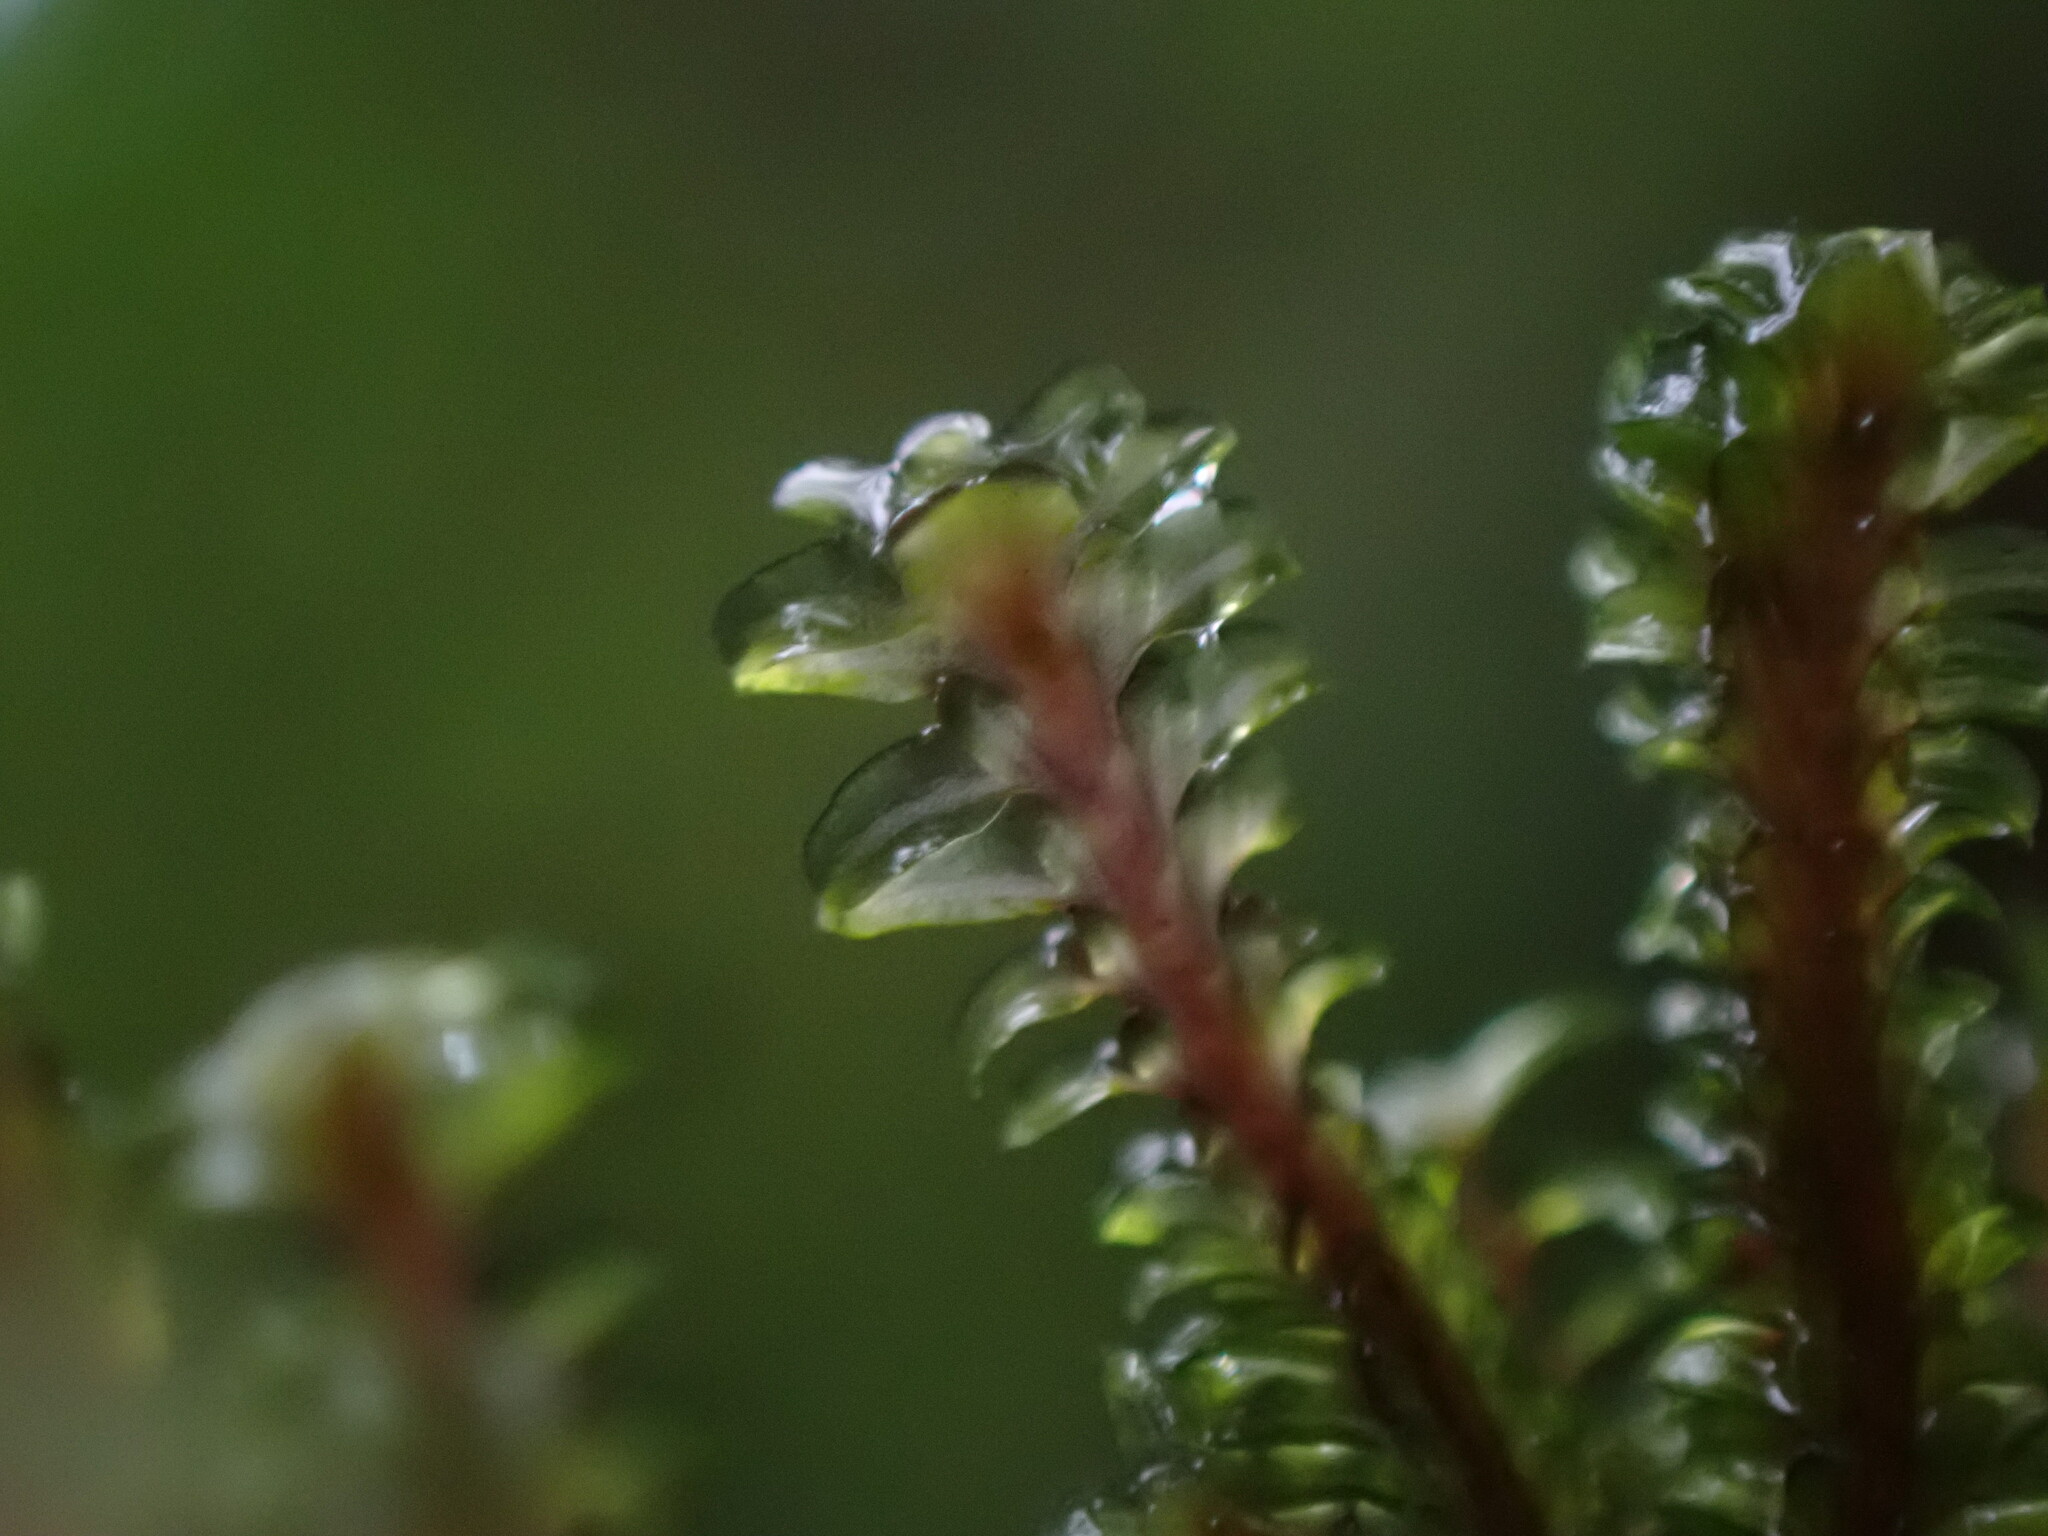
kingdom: Plantae
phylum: Marchantiophyta
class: Jungermanniopsida
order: Jungermanniales
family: Scapaniaceae
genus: Diplophyllum
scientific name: Diplophyllum albicans
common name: White earwort
